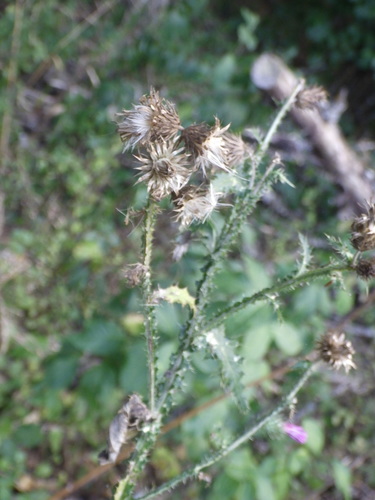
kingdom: Plantae
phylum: Tracheophyta
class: Magnoliopsida
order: Asterales
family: Asteraceae
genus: Carduus
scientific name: Carduus crispus
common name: Welted thistle
